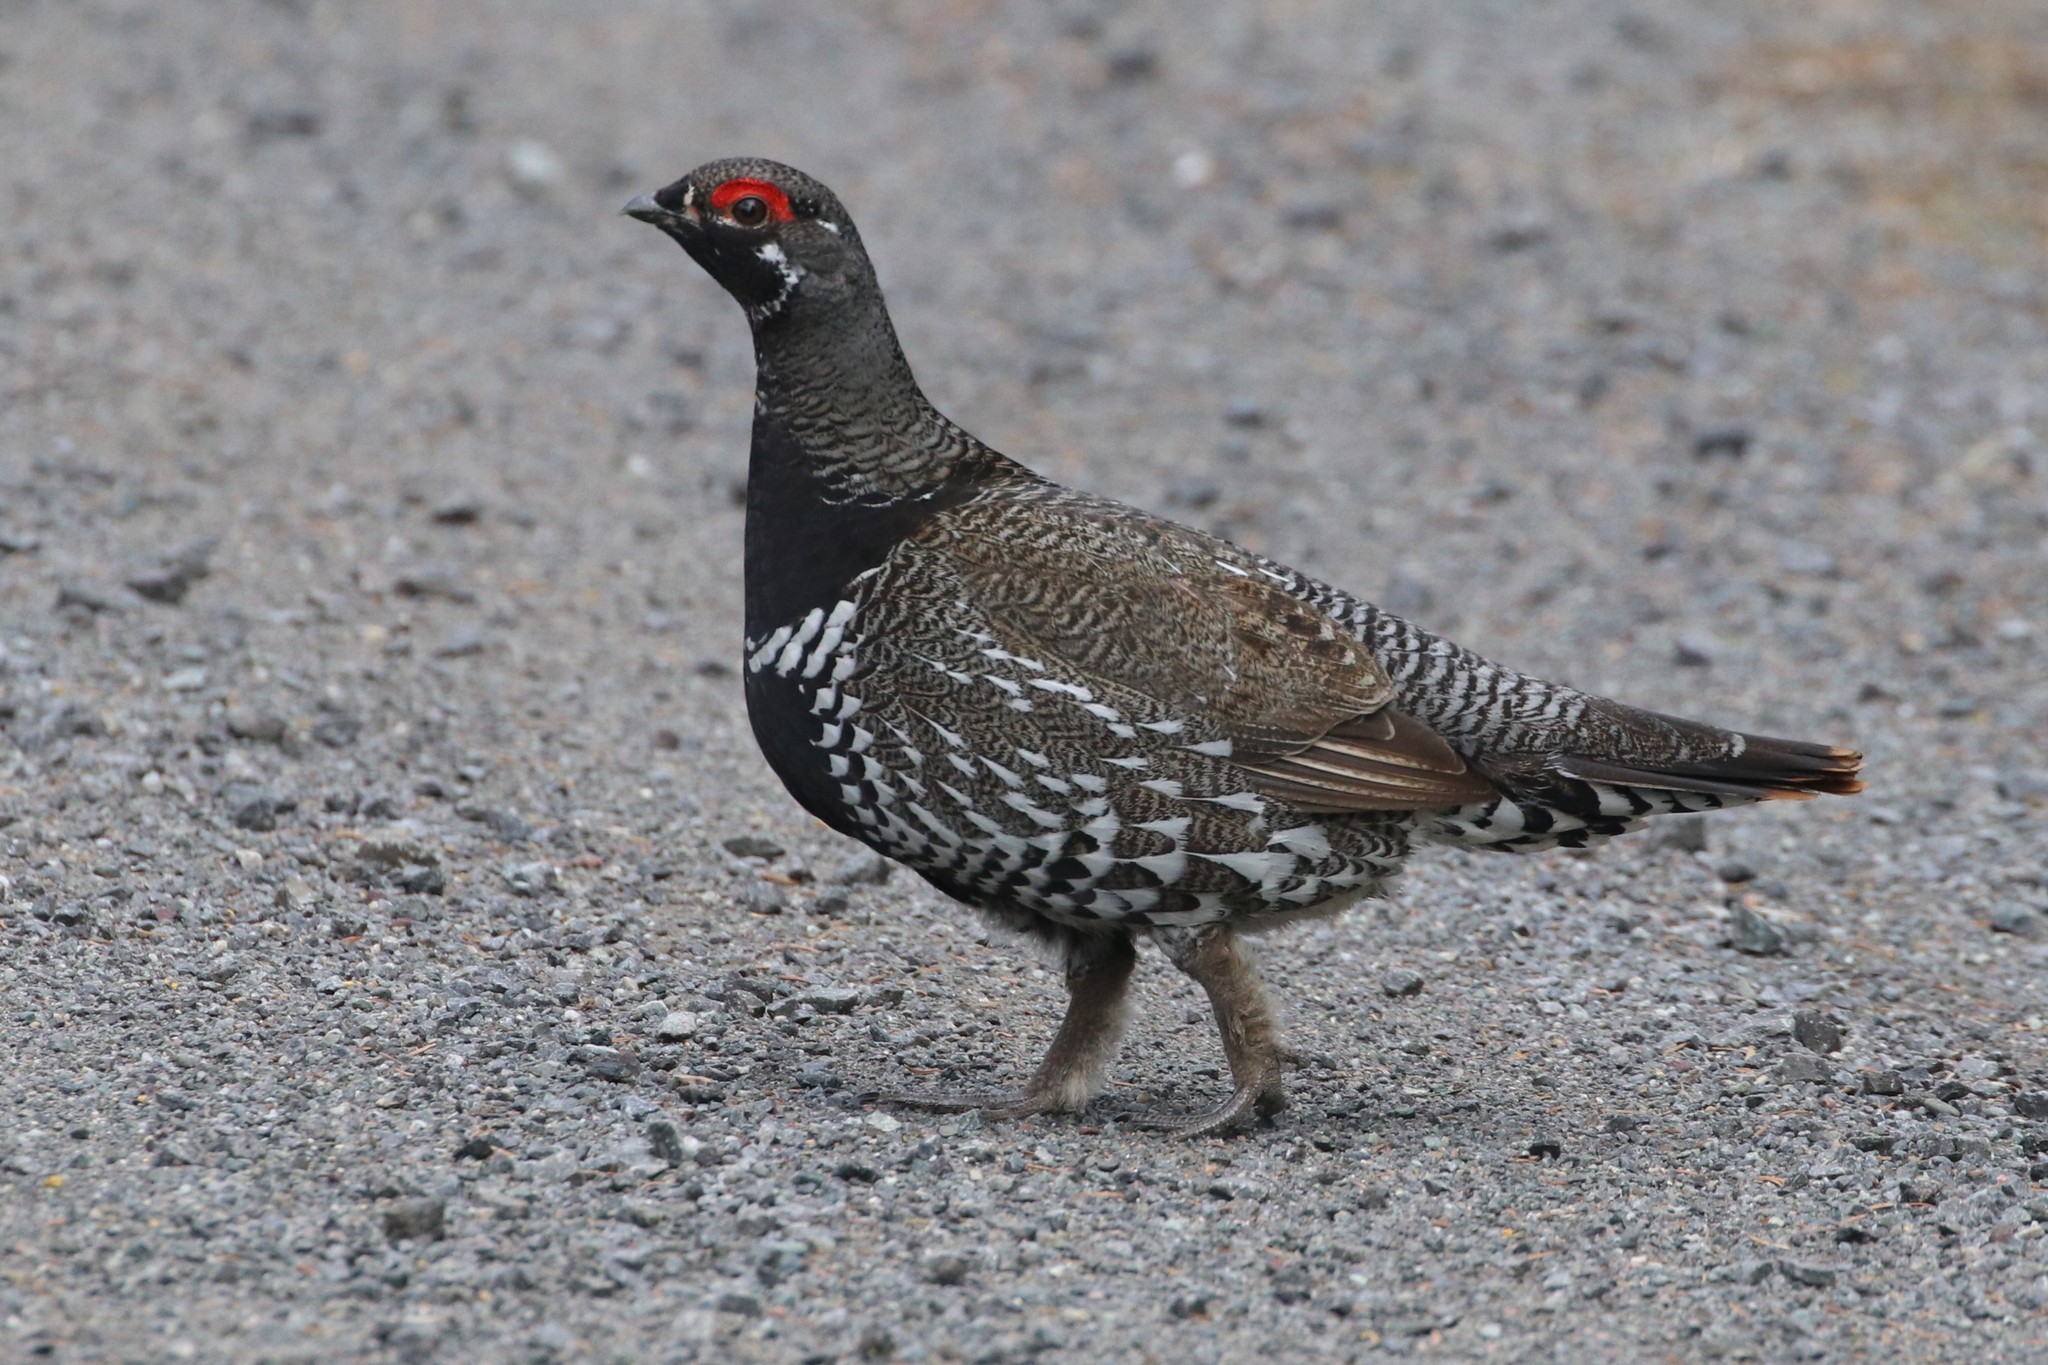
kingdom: Animalia
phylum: Chordata
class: Aves
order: Galliformes
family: Phasianidae
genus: Canachites
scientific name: Canachites canadensis
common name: Spruce grouse
